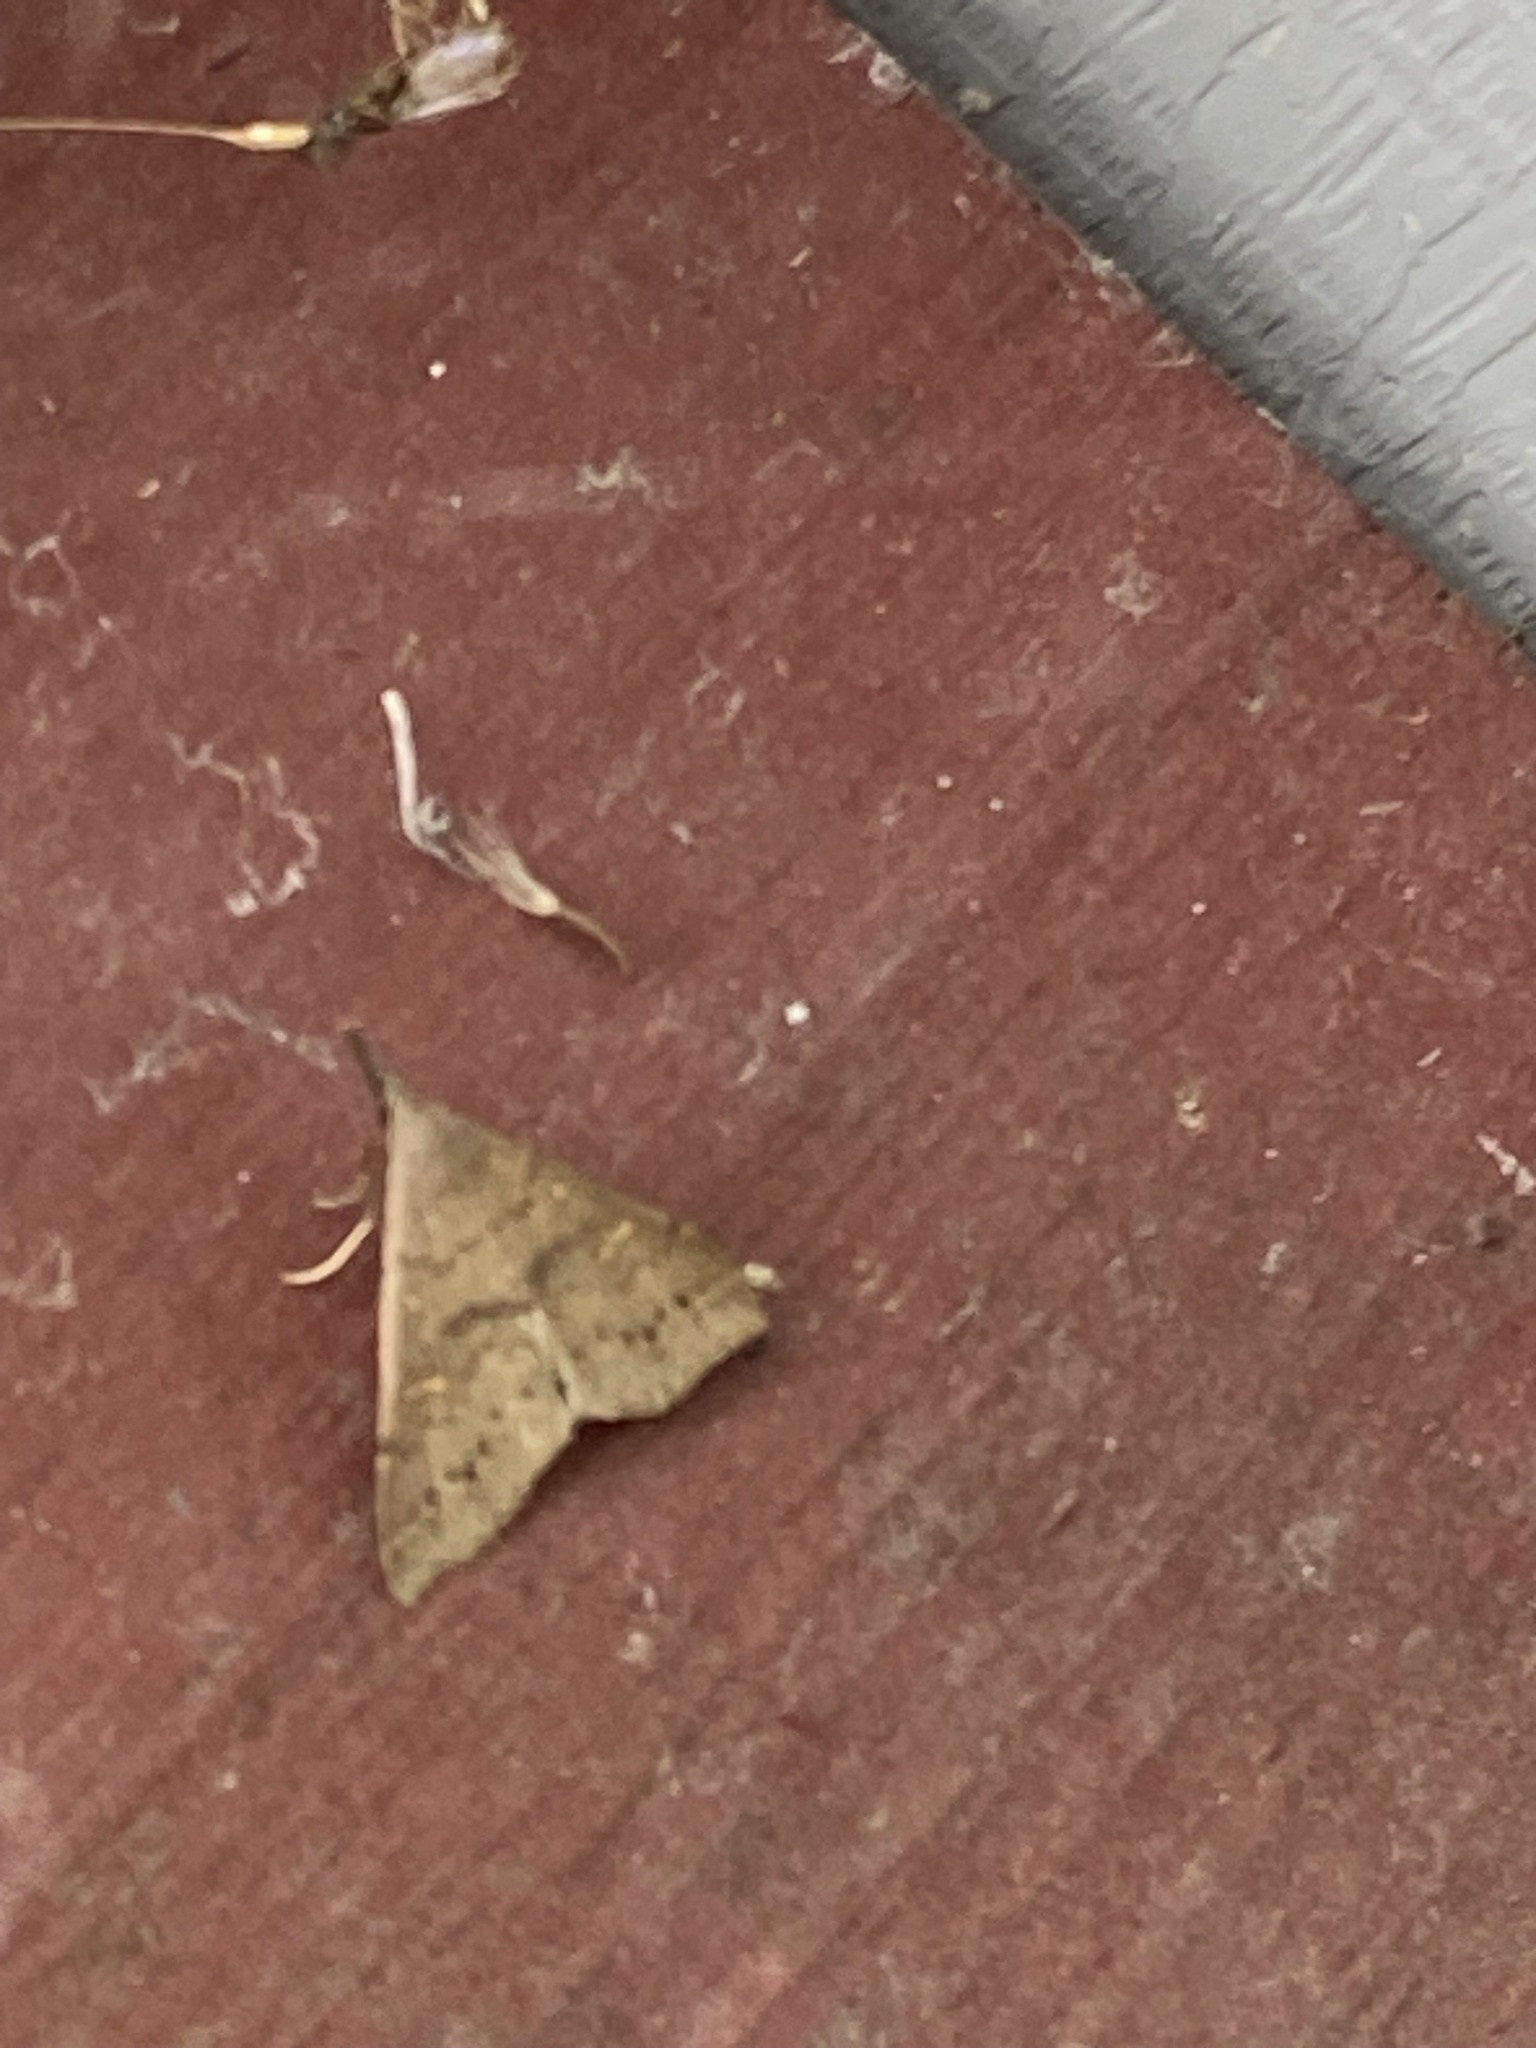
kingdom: Animalia
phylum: Arthropoda
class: Insecta
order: Lepidoptera
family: Erebidae
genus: Renia
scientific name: Renia adspergillus
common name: Speckled renia moth
